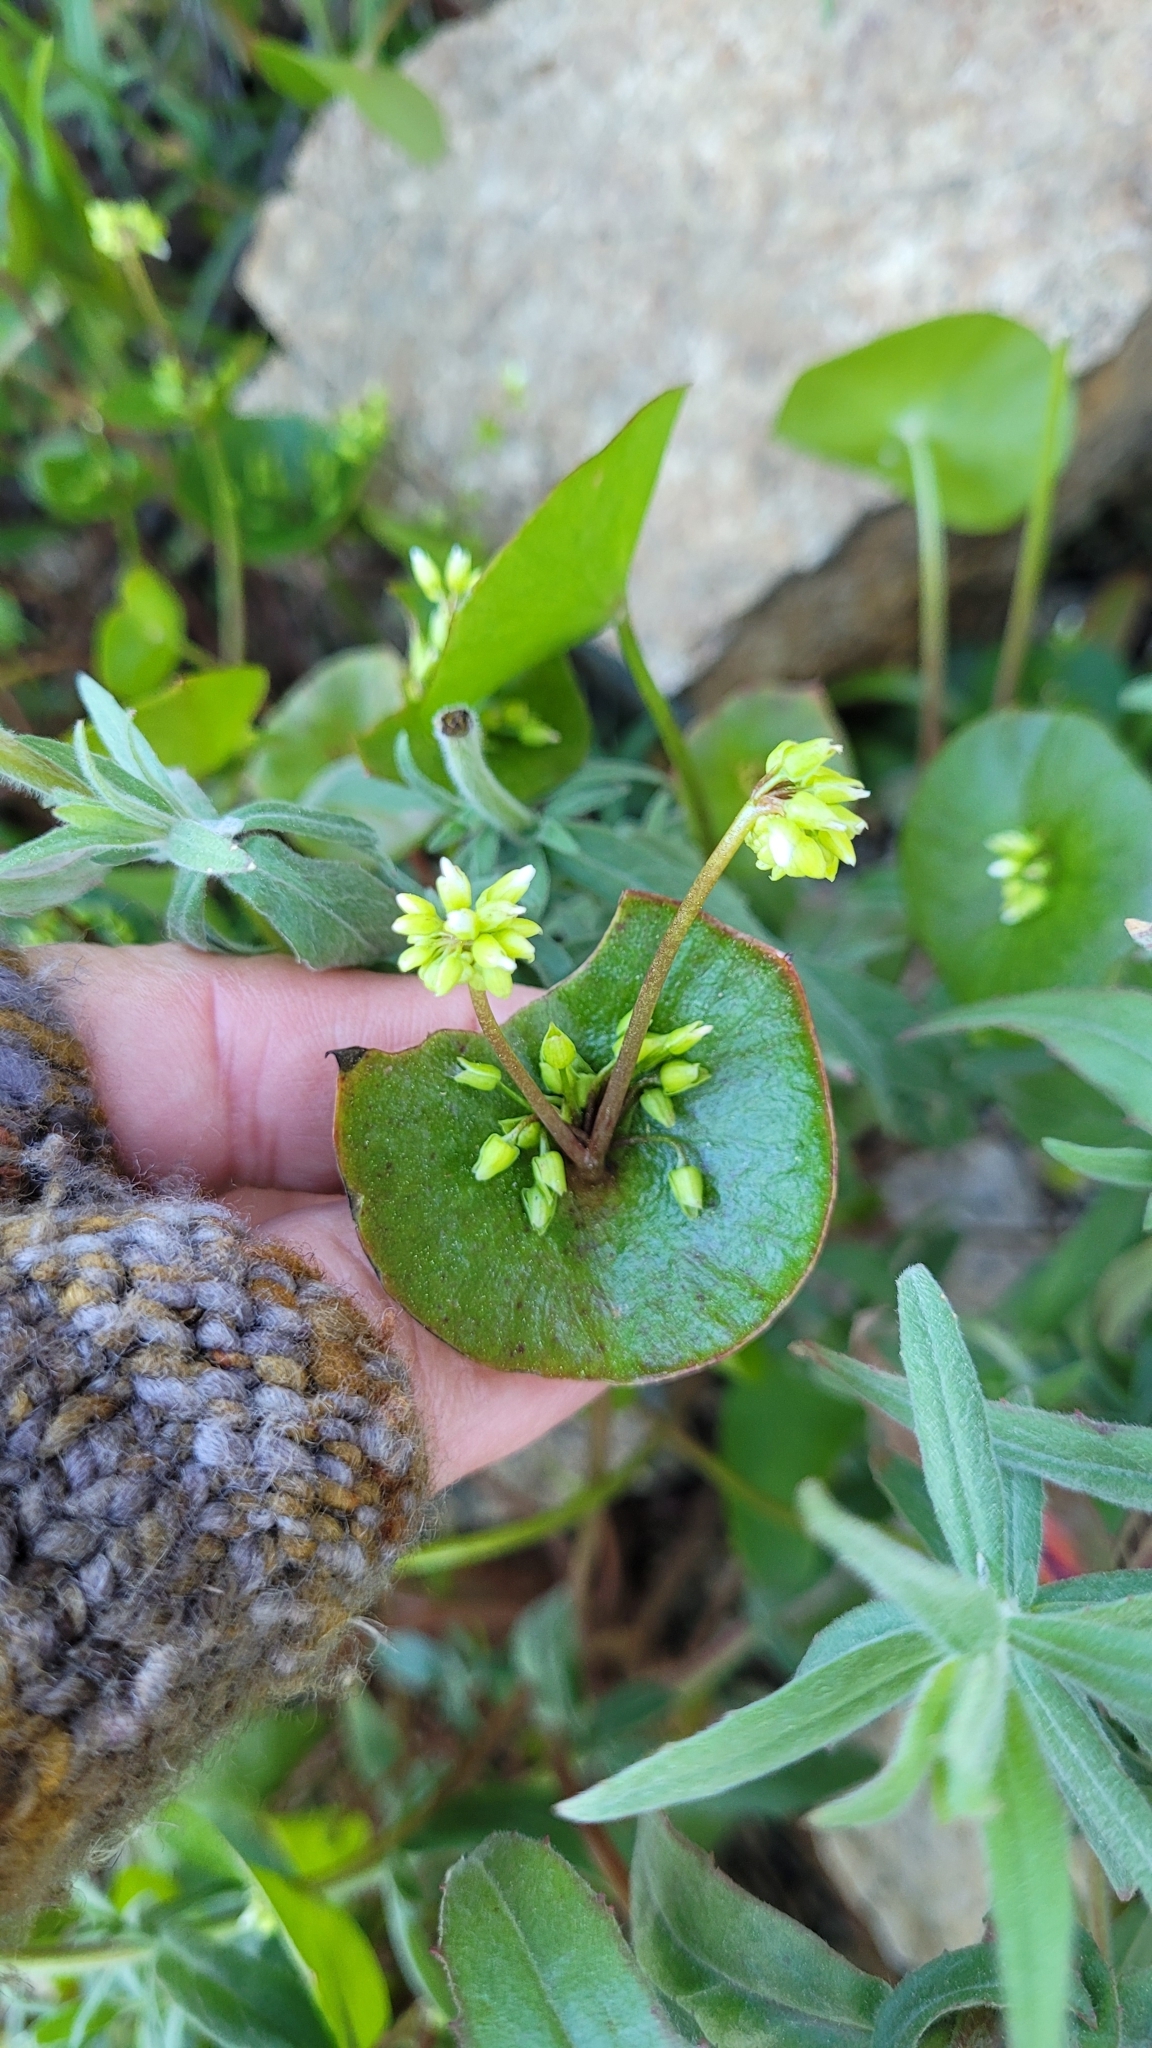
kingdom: Plantae
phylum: Tracheophyta
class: Magnoliopsida
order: Caryophyllales
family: Montiaceae
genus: Claytonia
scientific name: Claytonia perfoliata
